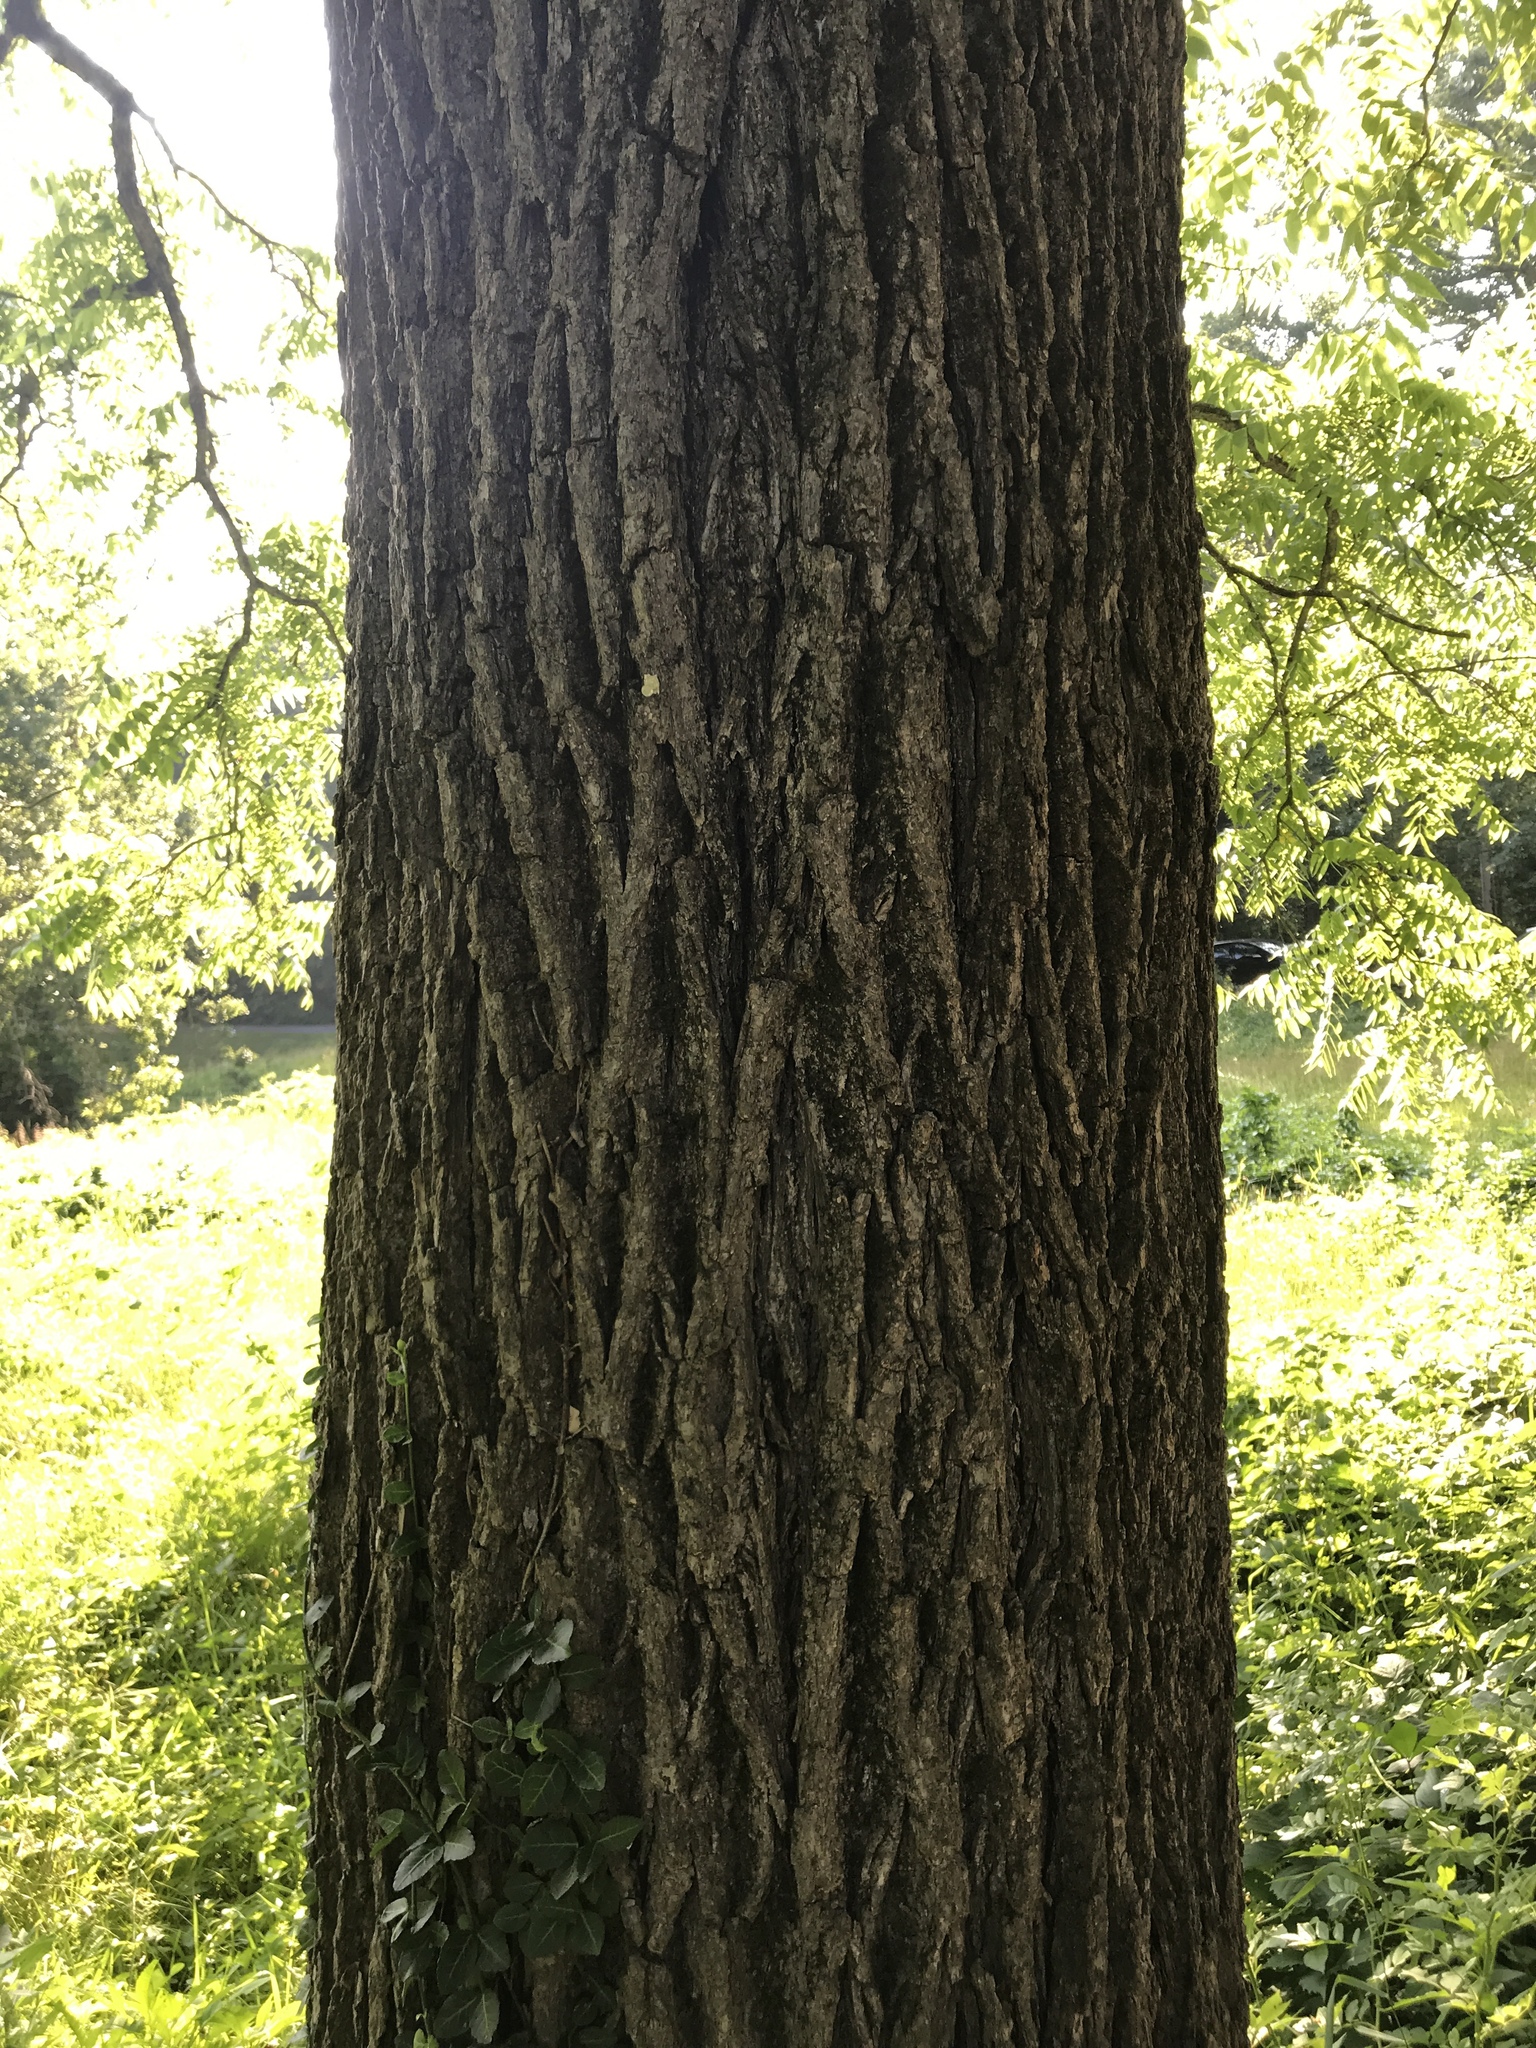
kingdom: Plantae
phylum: Tracheophyta
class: Magnoliopsida
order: Fagales
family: Juglandaceae
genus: Juglans
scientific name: Juglans nigra
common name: Black walnut
